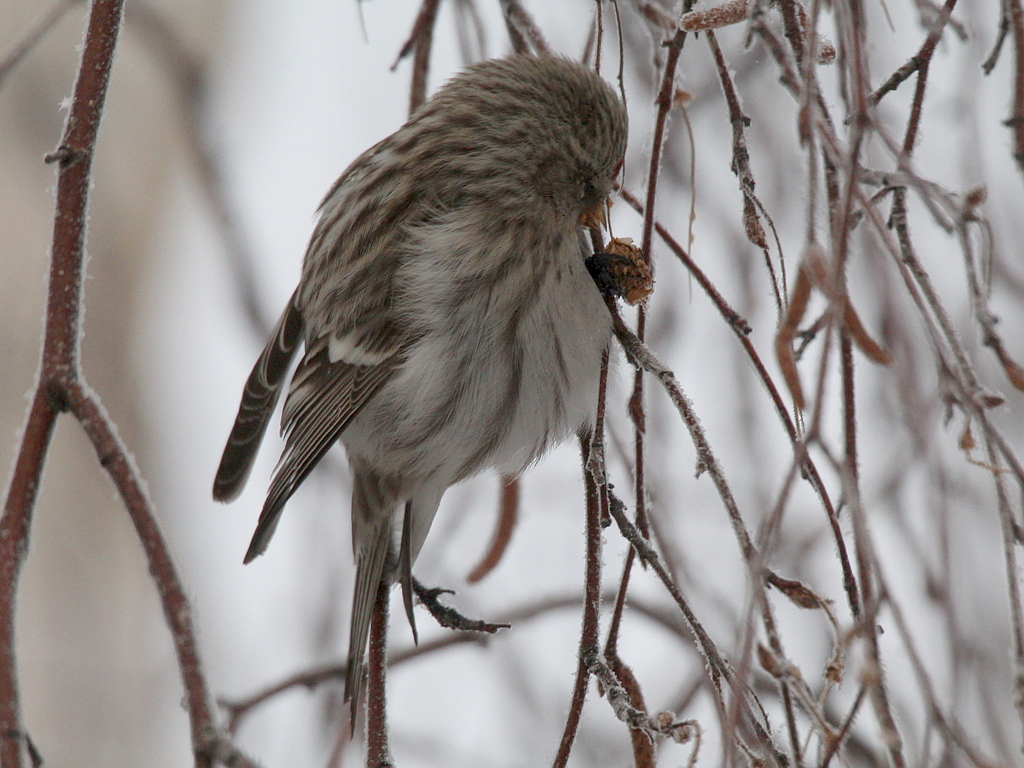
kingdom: Animalia
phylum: Chordata
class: Aves
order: Passeriformes
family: Fringillidae
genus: Acanthis
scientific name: Acanthis flammea
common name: Common redpoll
